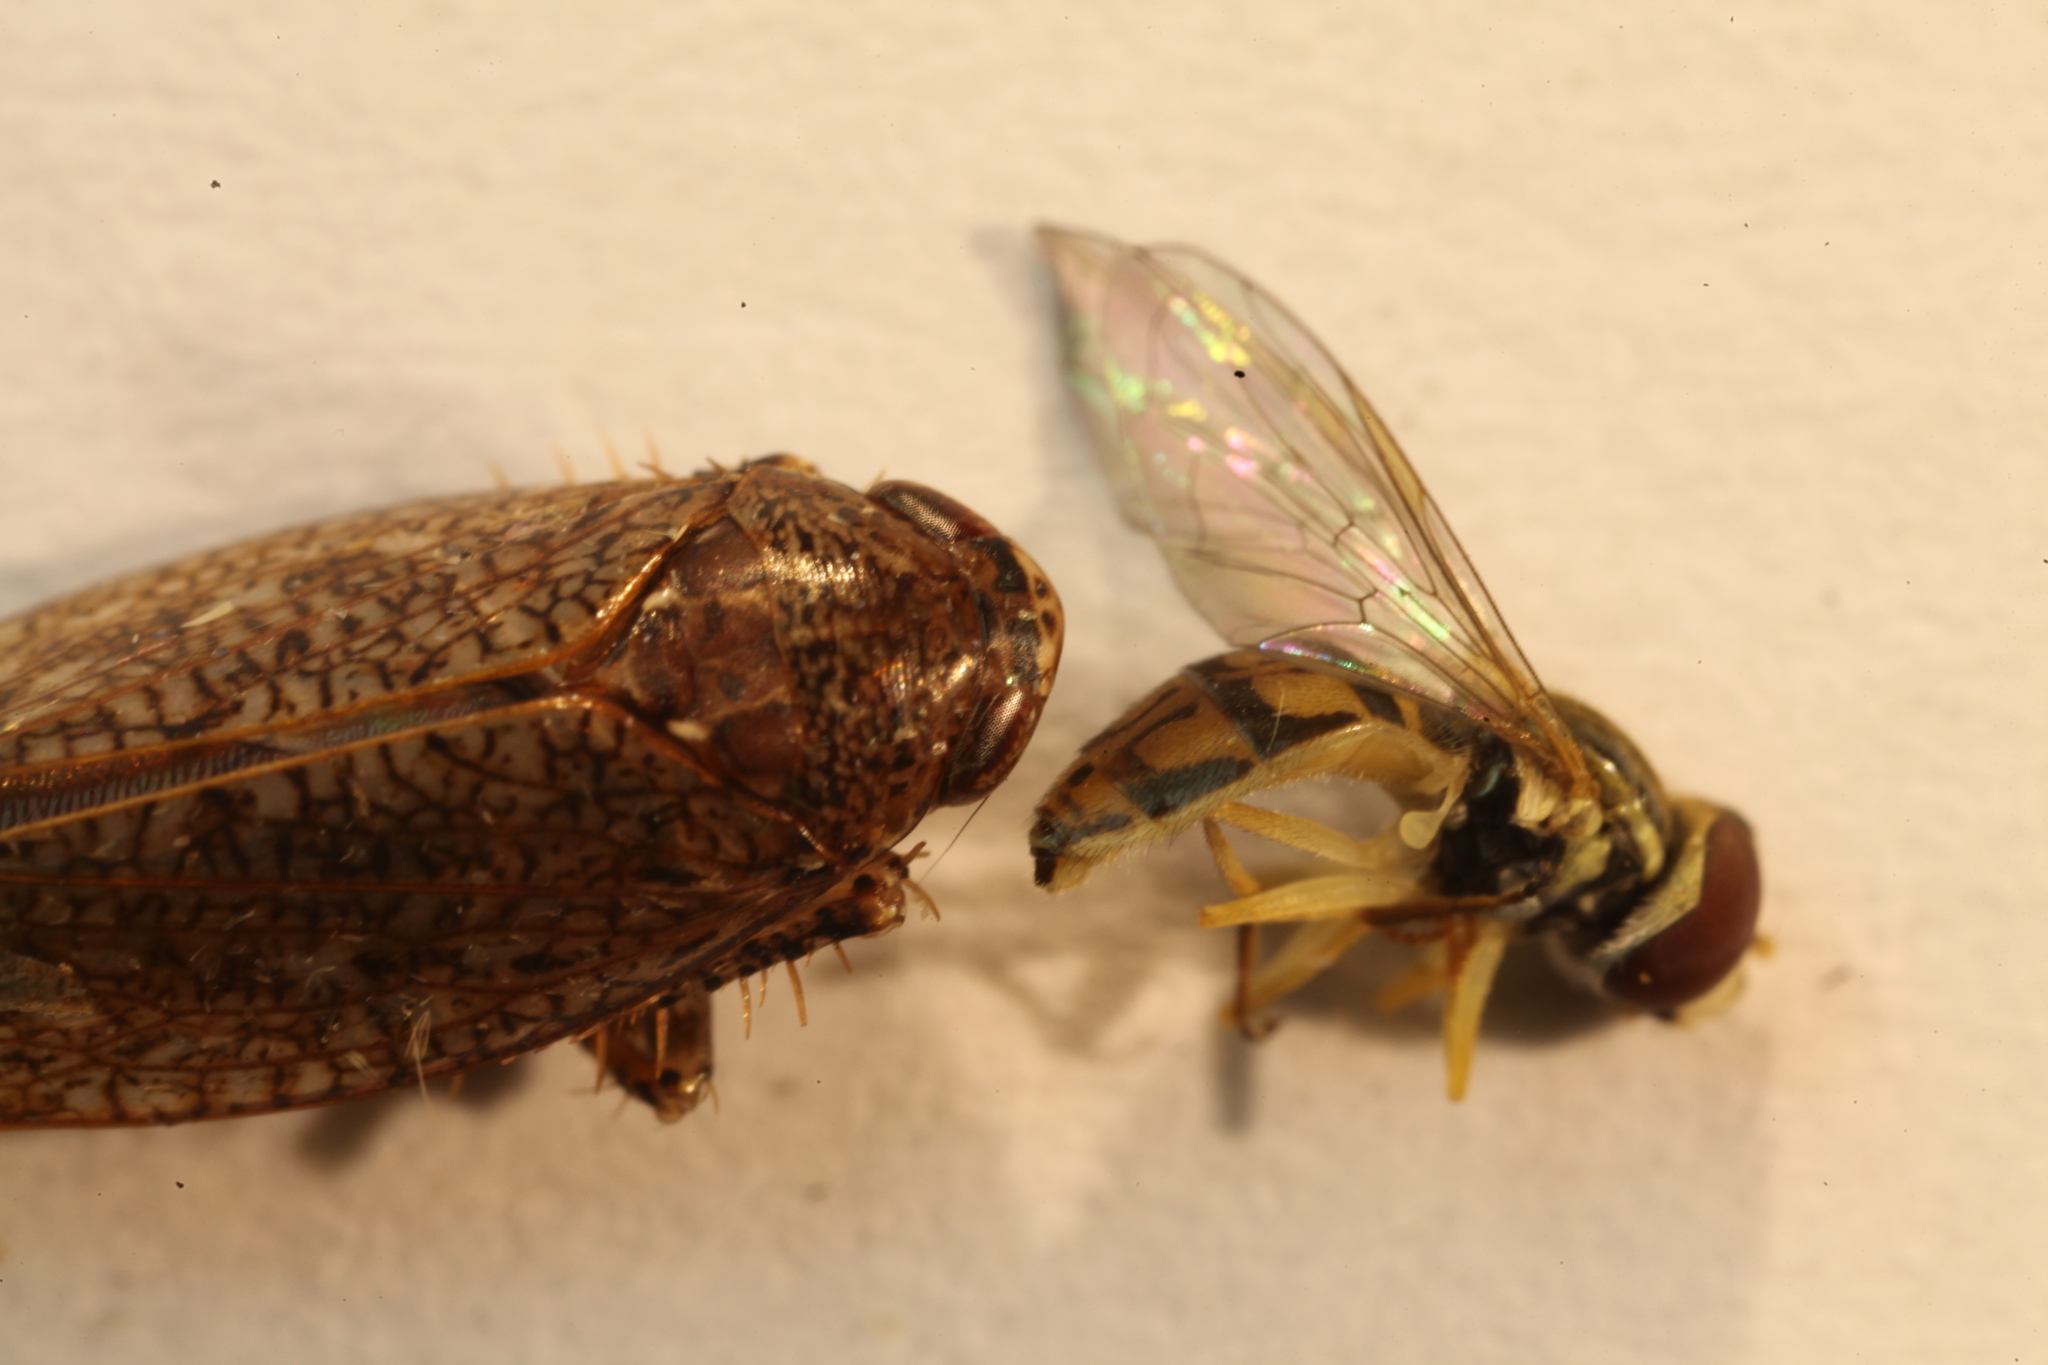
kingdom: Animalia
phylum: Arthropoda
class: Insecta
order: Diptera
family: Syrphidae
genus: Toxomerus
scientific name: Toxomerus marginatus
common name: Syrphid fly
